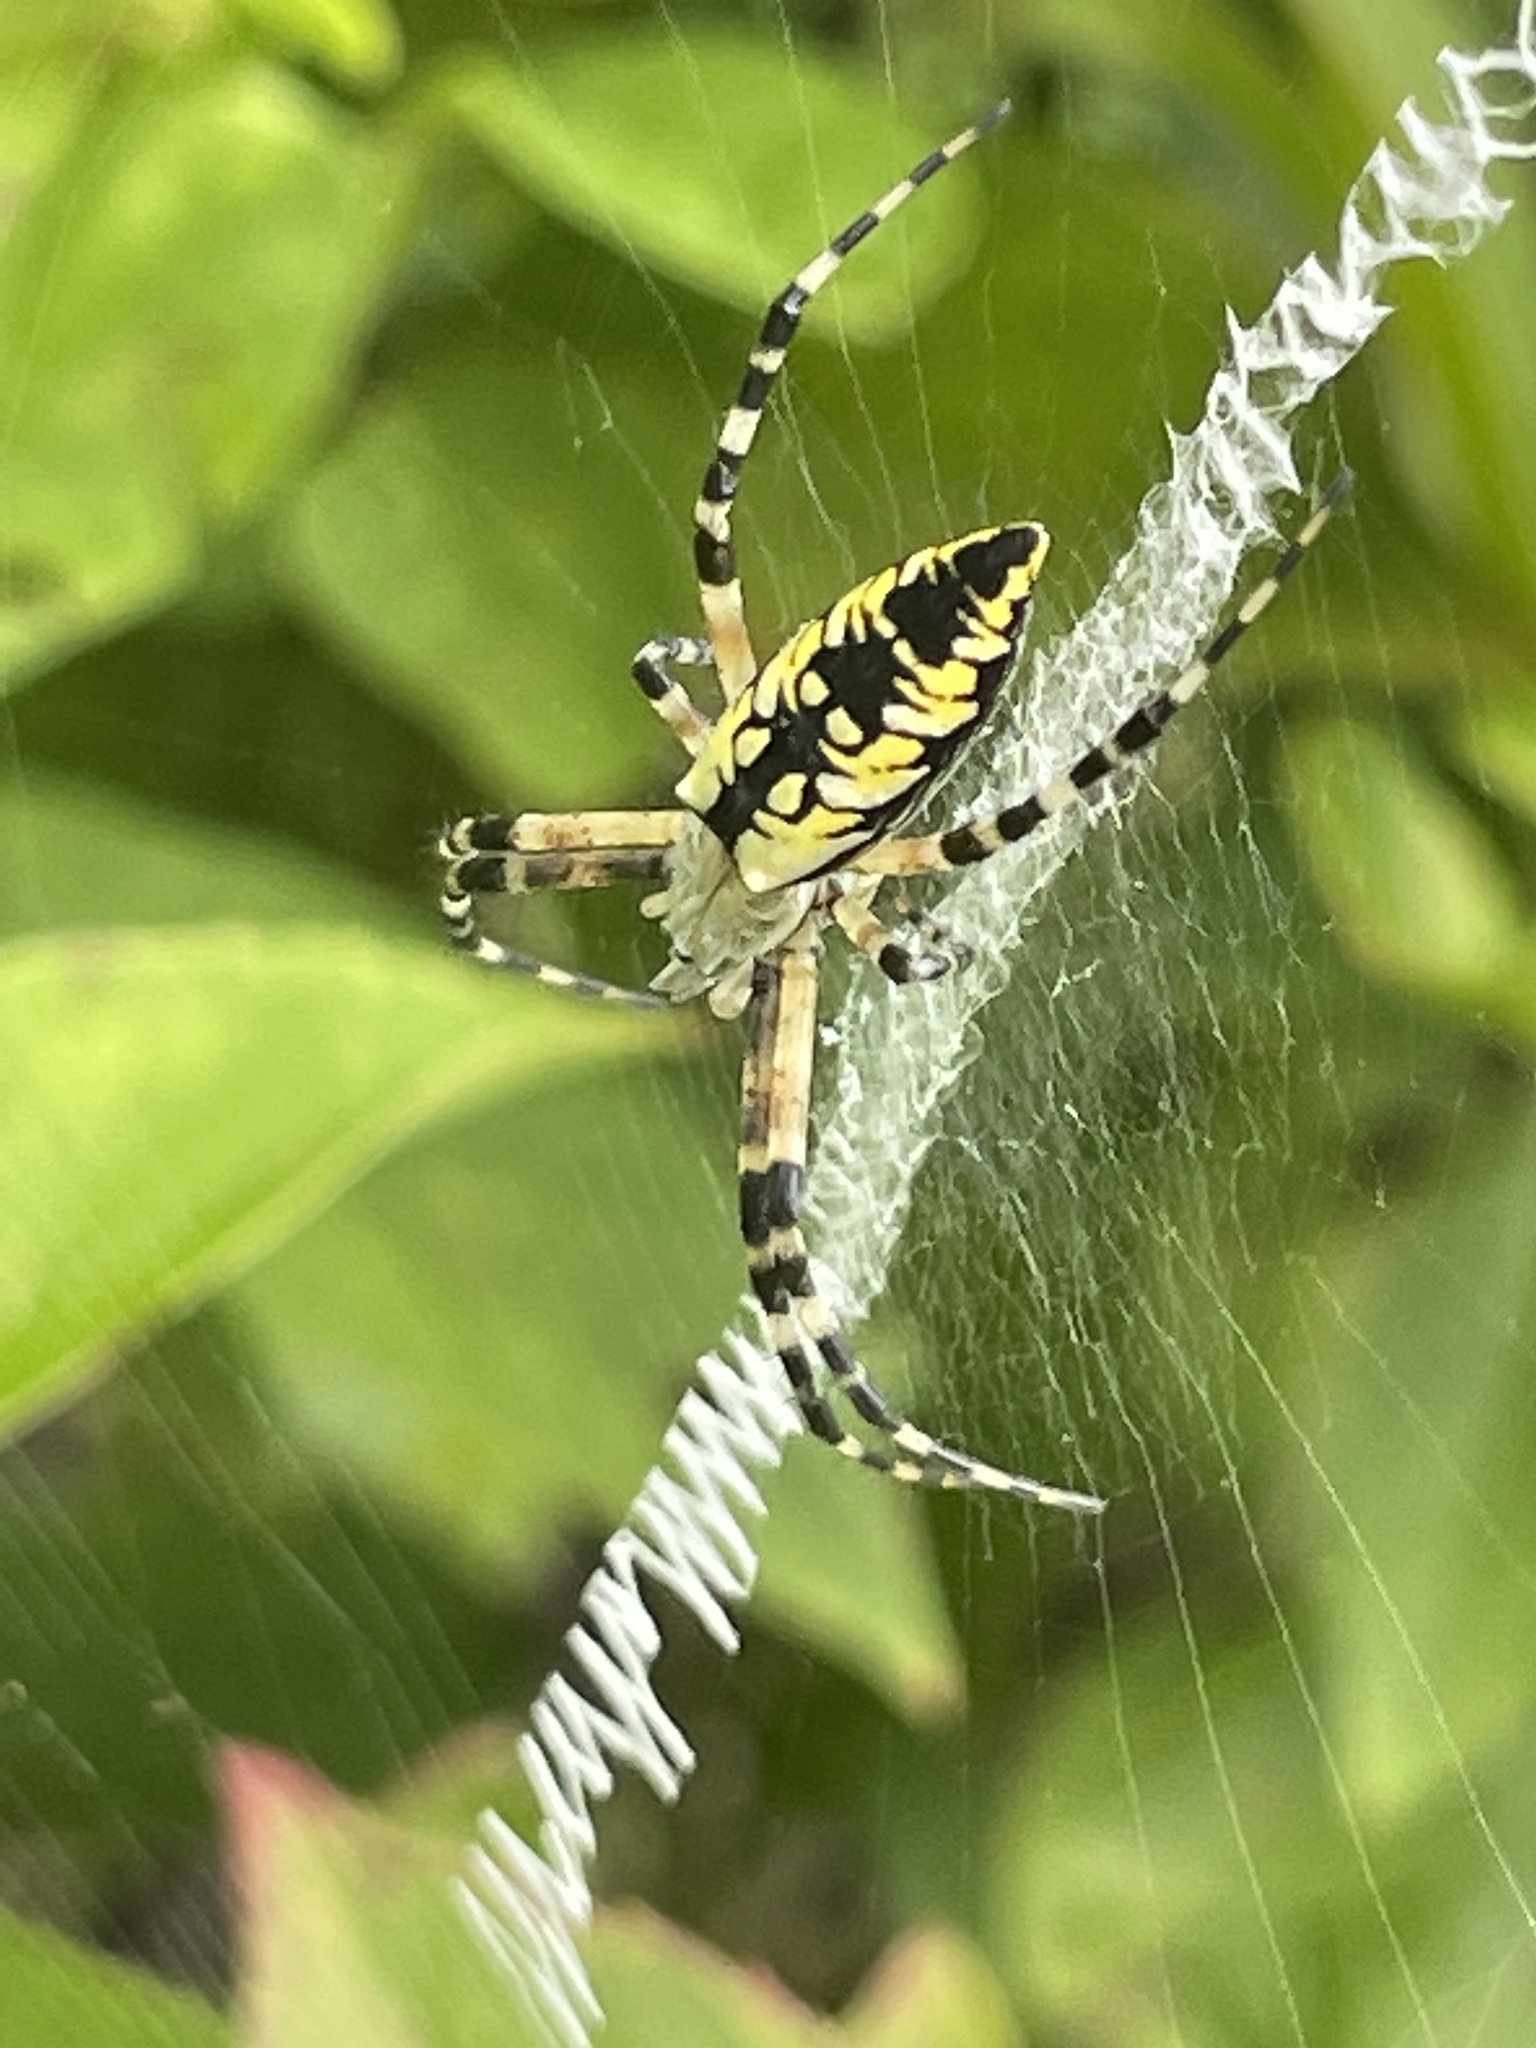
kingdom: Animalia
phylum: Arthropoda
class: Arachnida
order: Araneae
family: Araneidae
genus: Argiope
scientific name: Argiope aurantia
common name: Orb weavers
